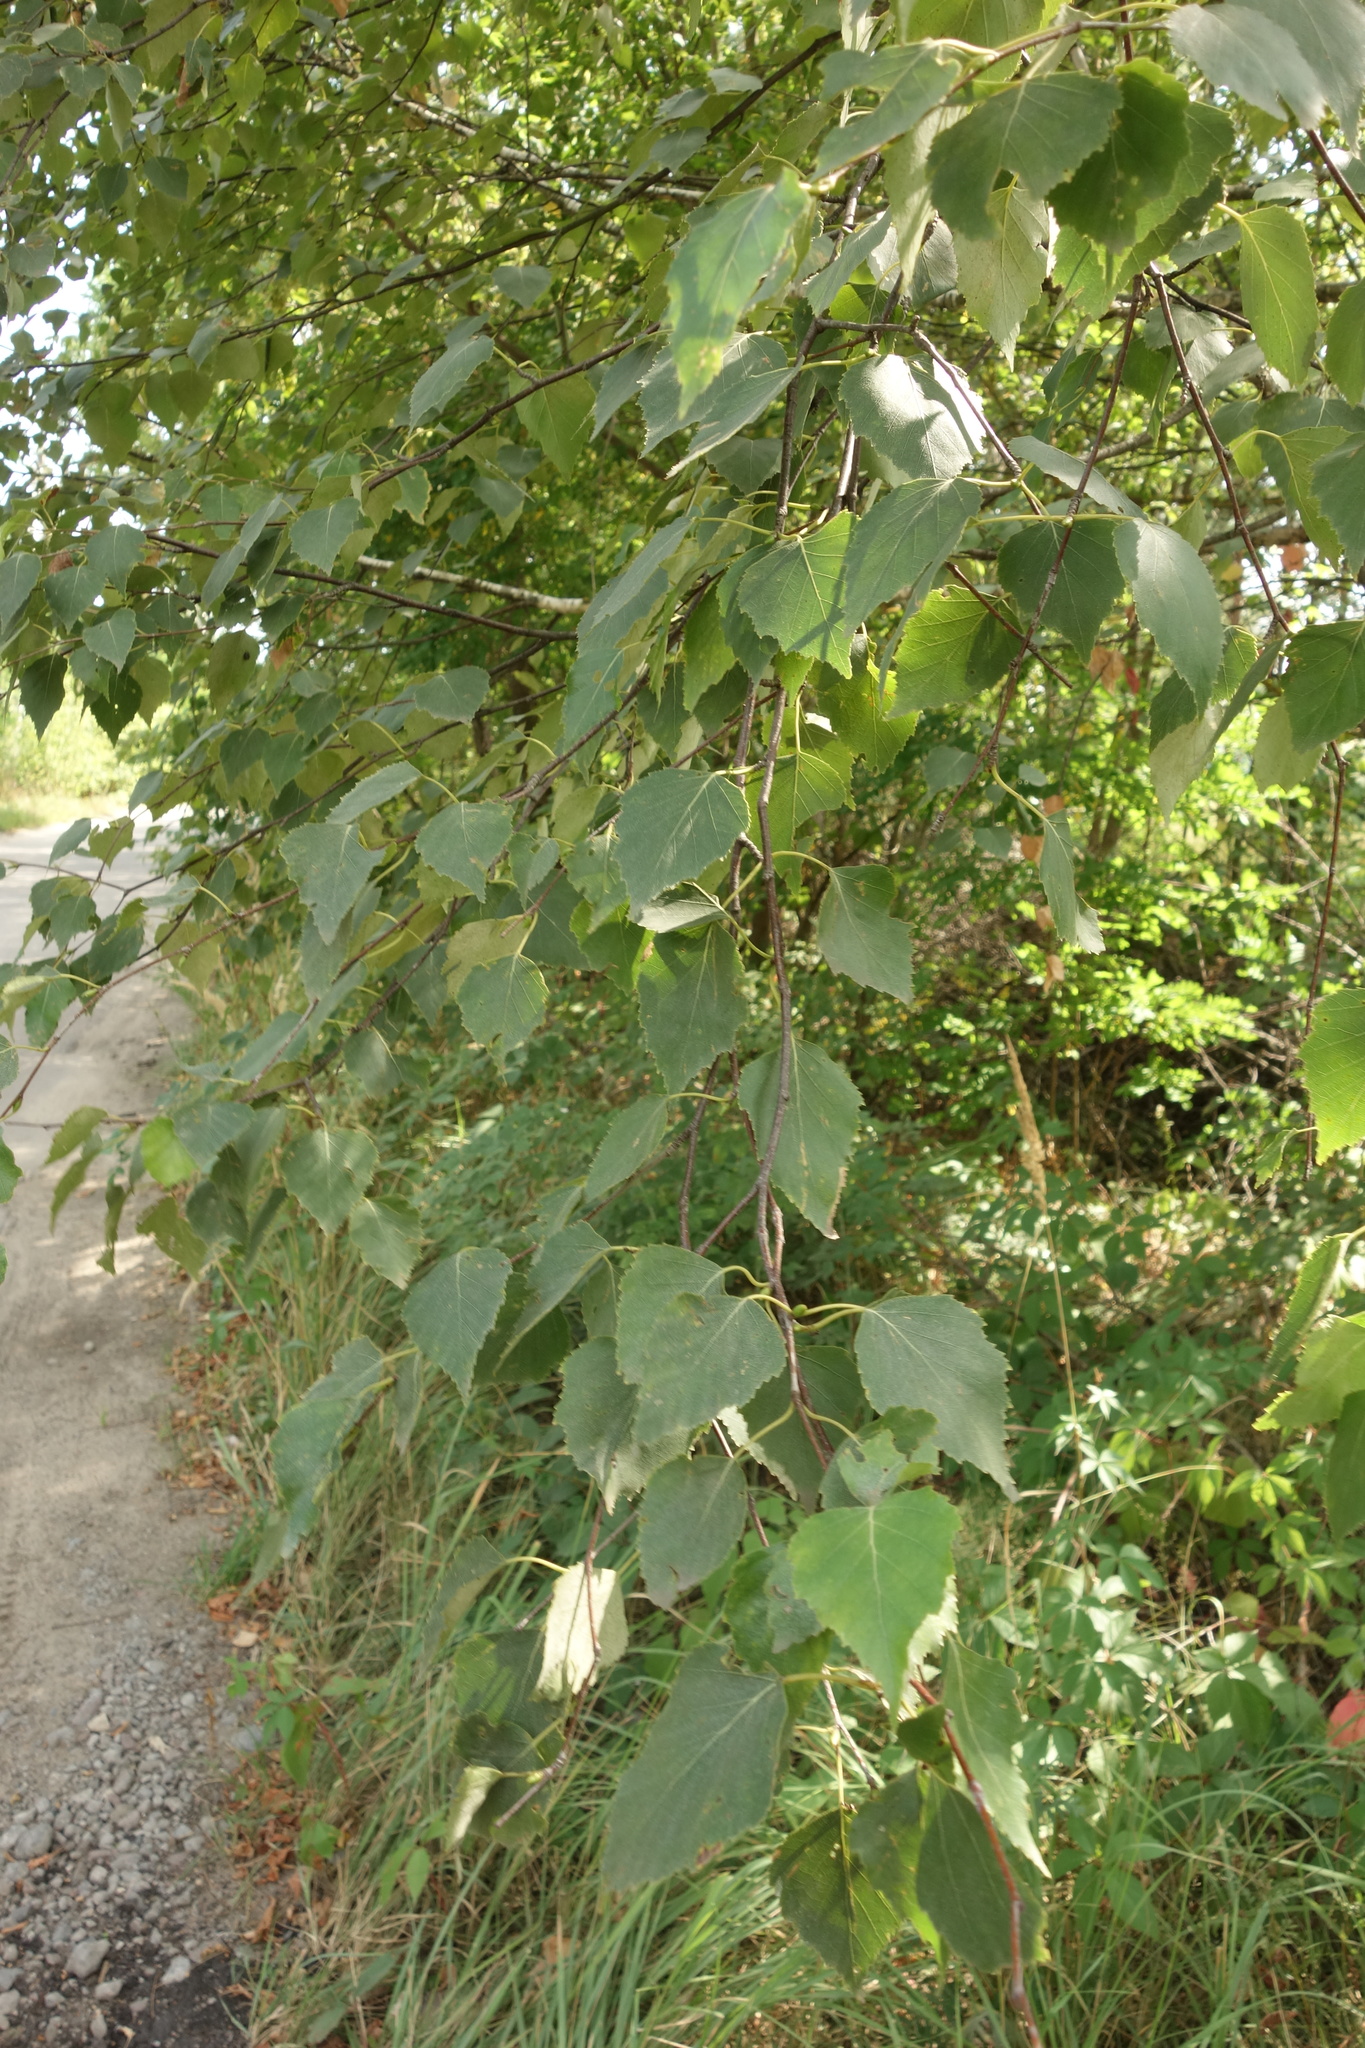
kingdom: Plantae
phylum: Tracheophyta
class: Magnoliopsida
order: Fagales
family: Betulaceae
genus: Betula
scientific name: Betula pendula
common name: Silver birch
